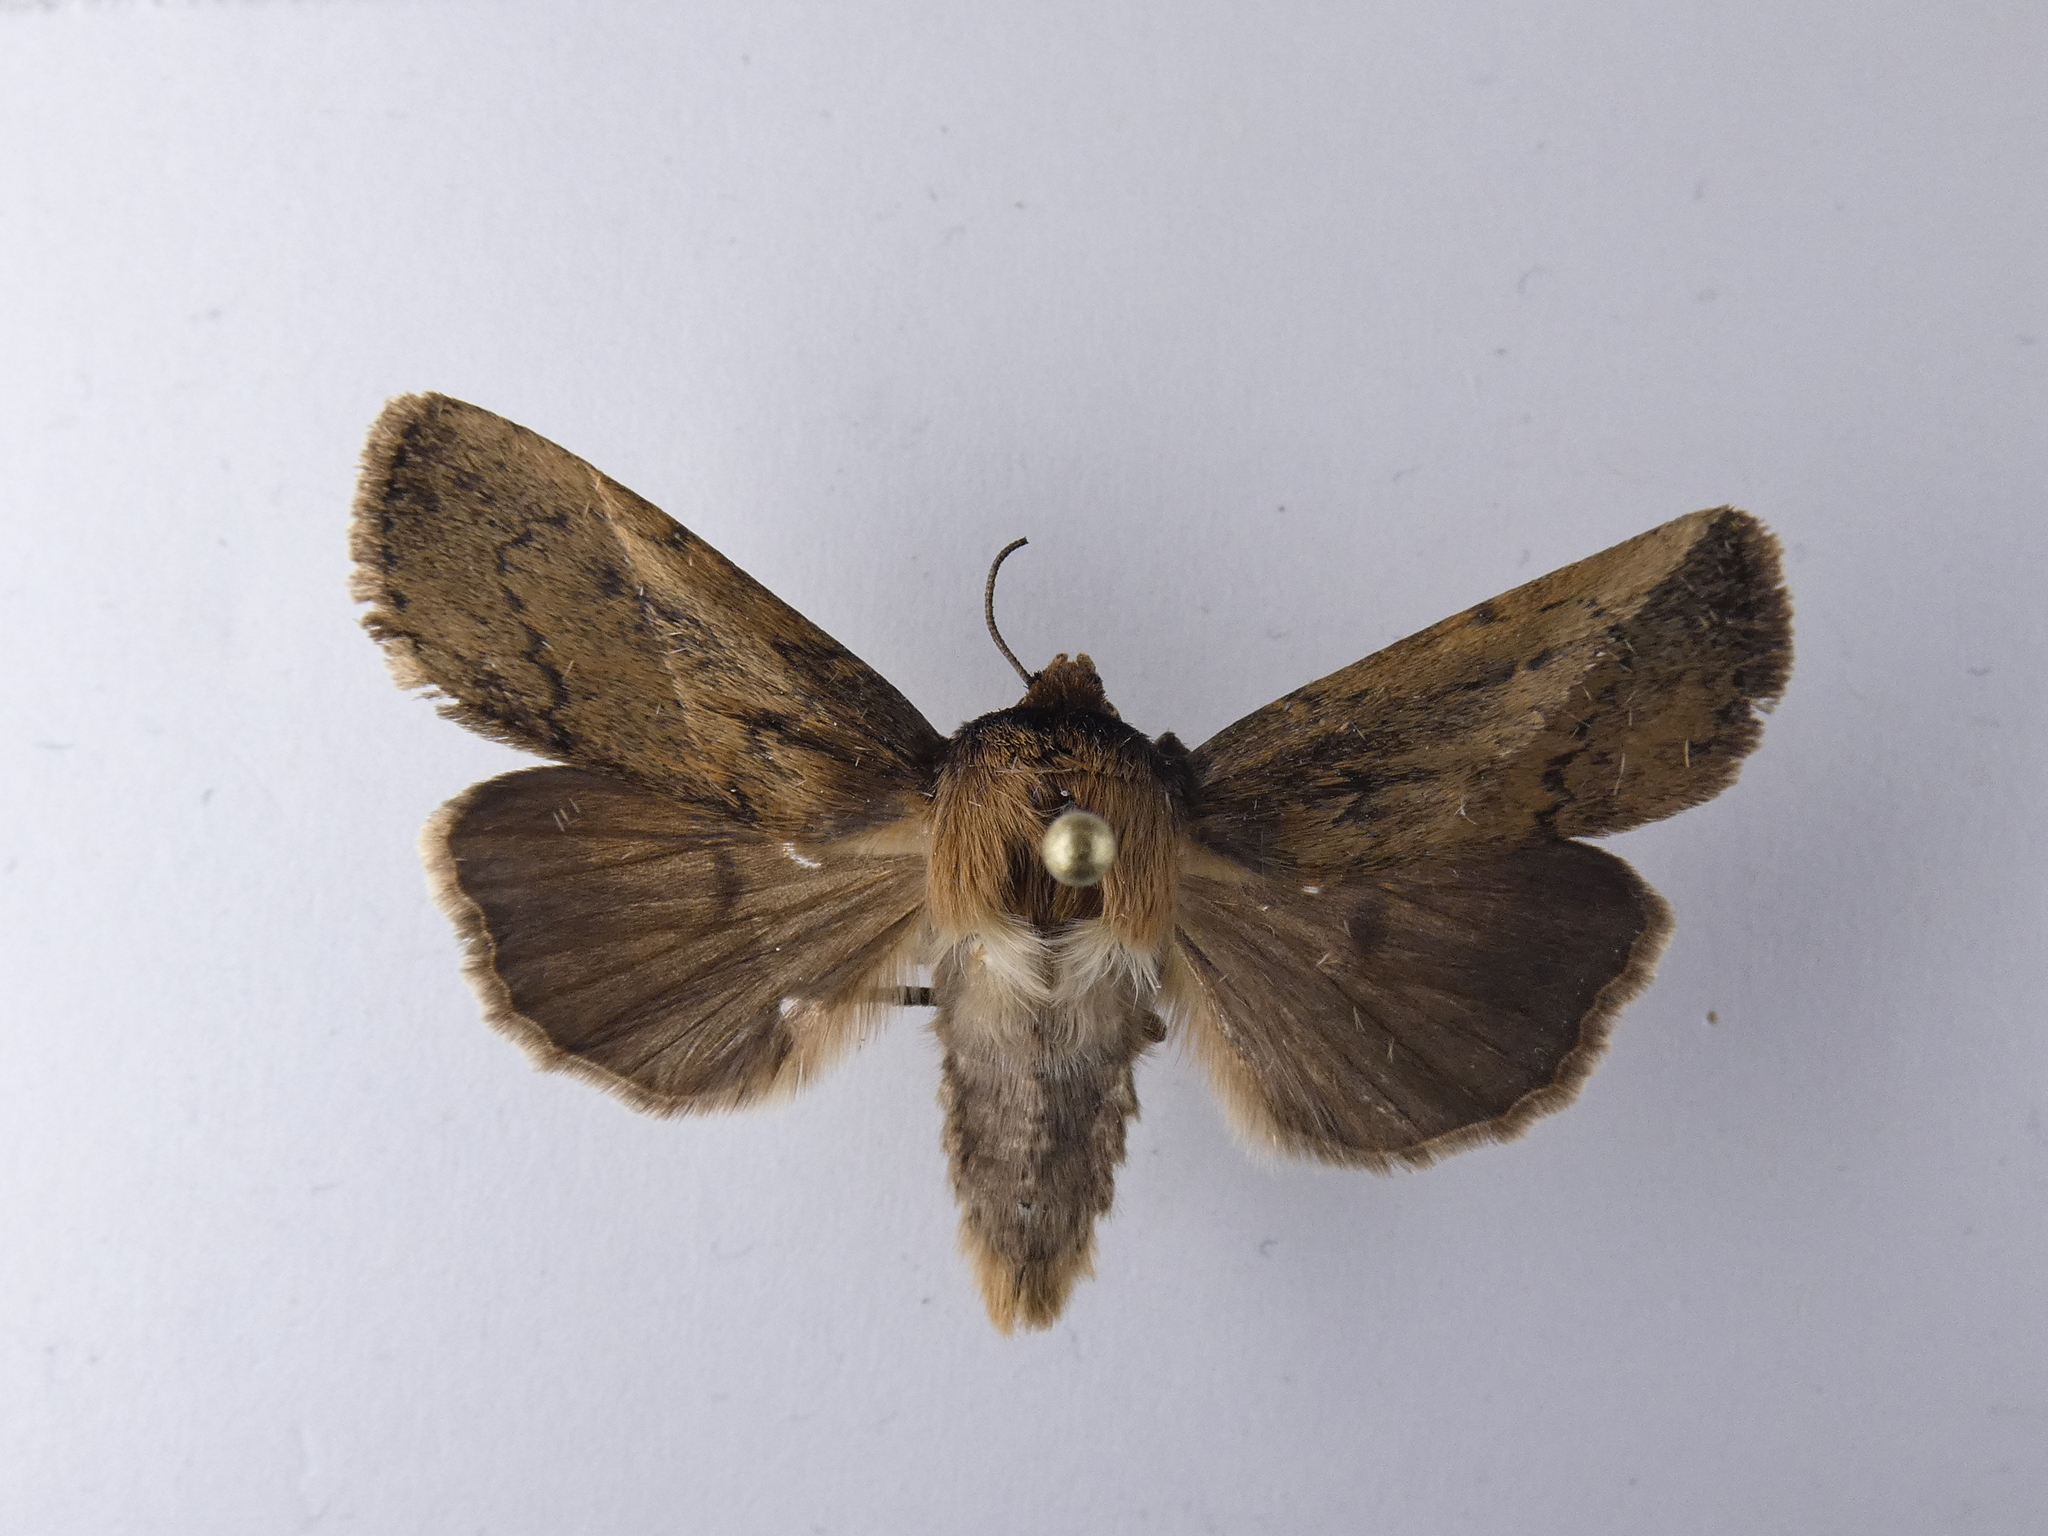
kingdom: Animalia
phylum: Arthropoda
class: Insecta
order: Lepidoptera
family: Noctuidae
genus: Bityla
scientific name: Bityla defigurata
